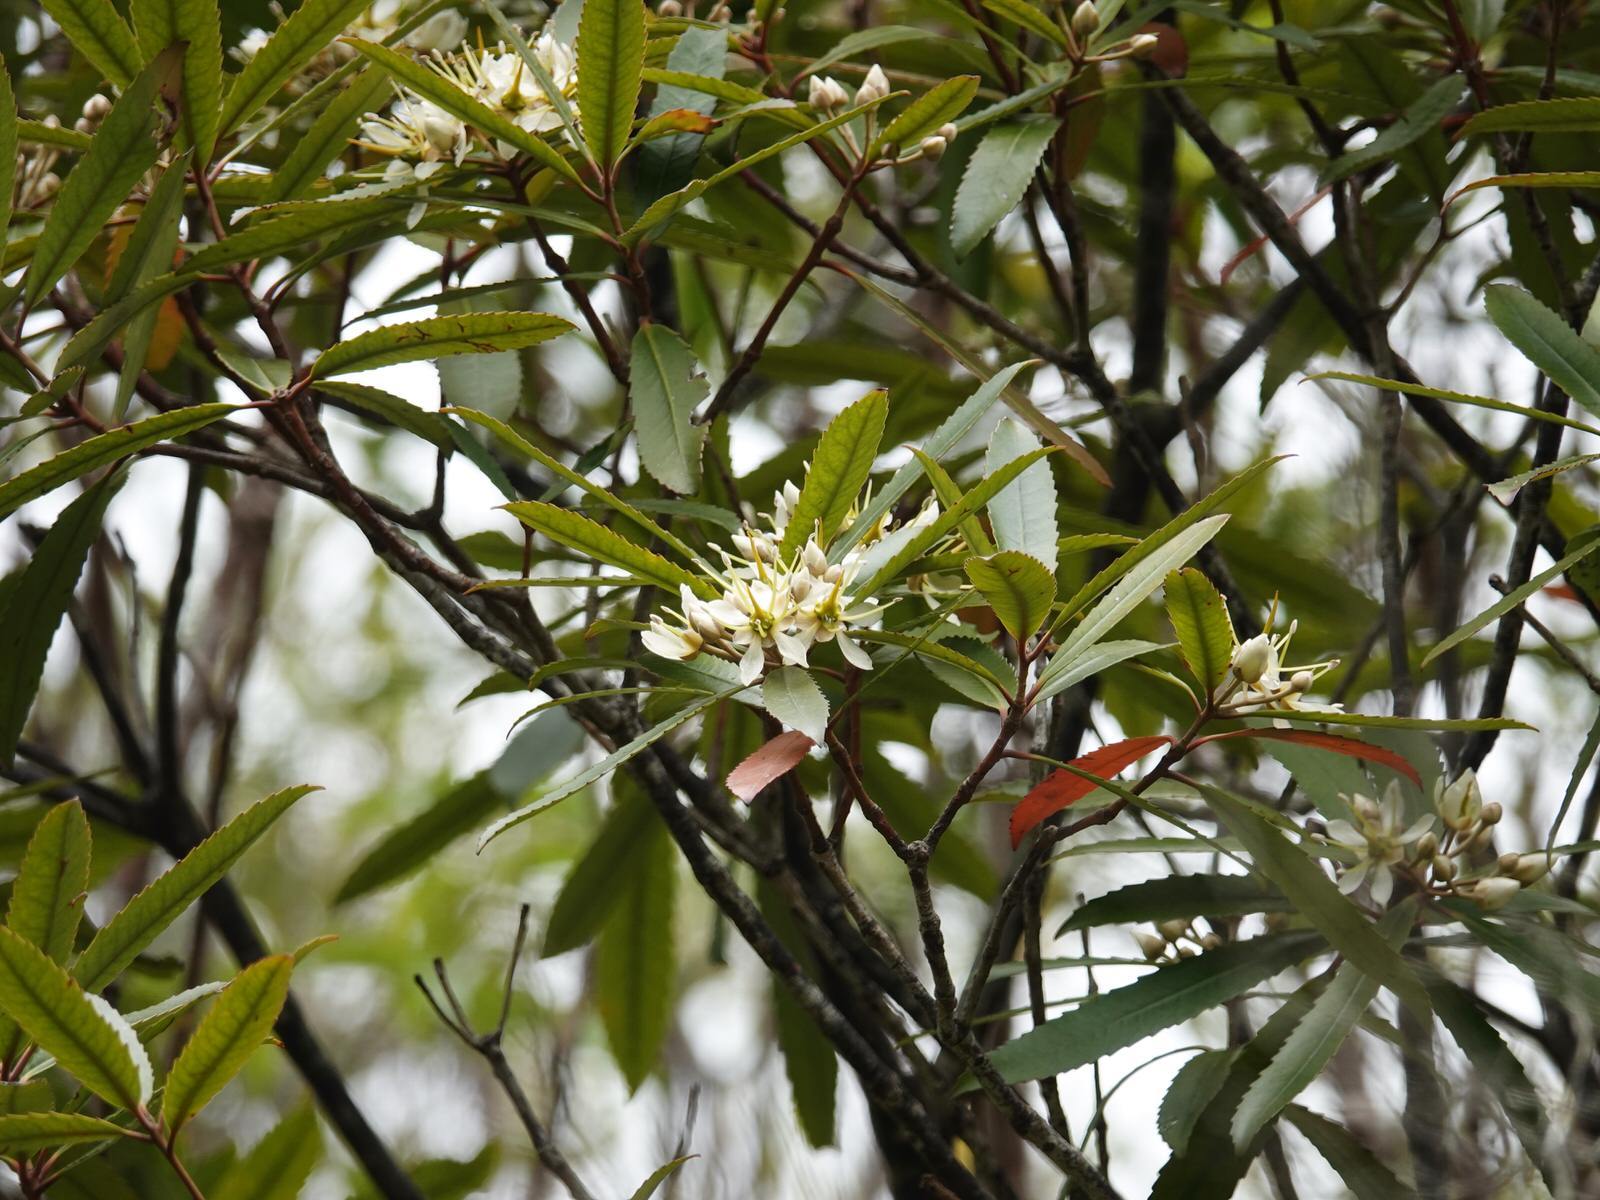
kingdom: Plantae
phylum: Tracheophyta
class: Magnoliopsida
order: Crossosomatales
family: Ixerbaceae
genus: Ixerba
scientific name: Ixerba brexioides
